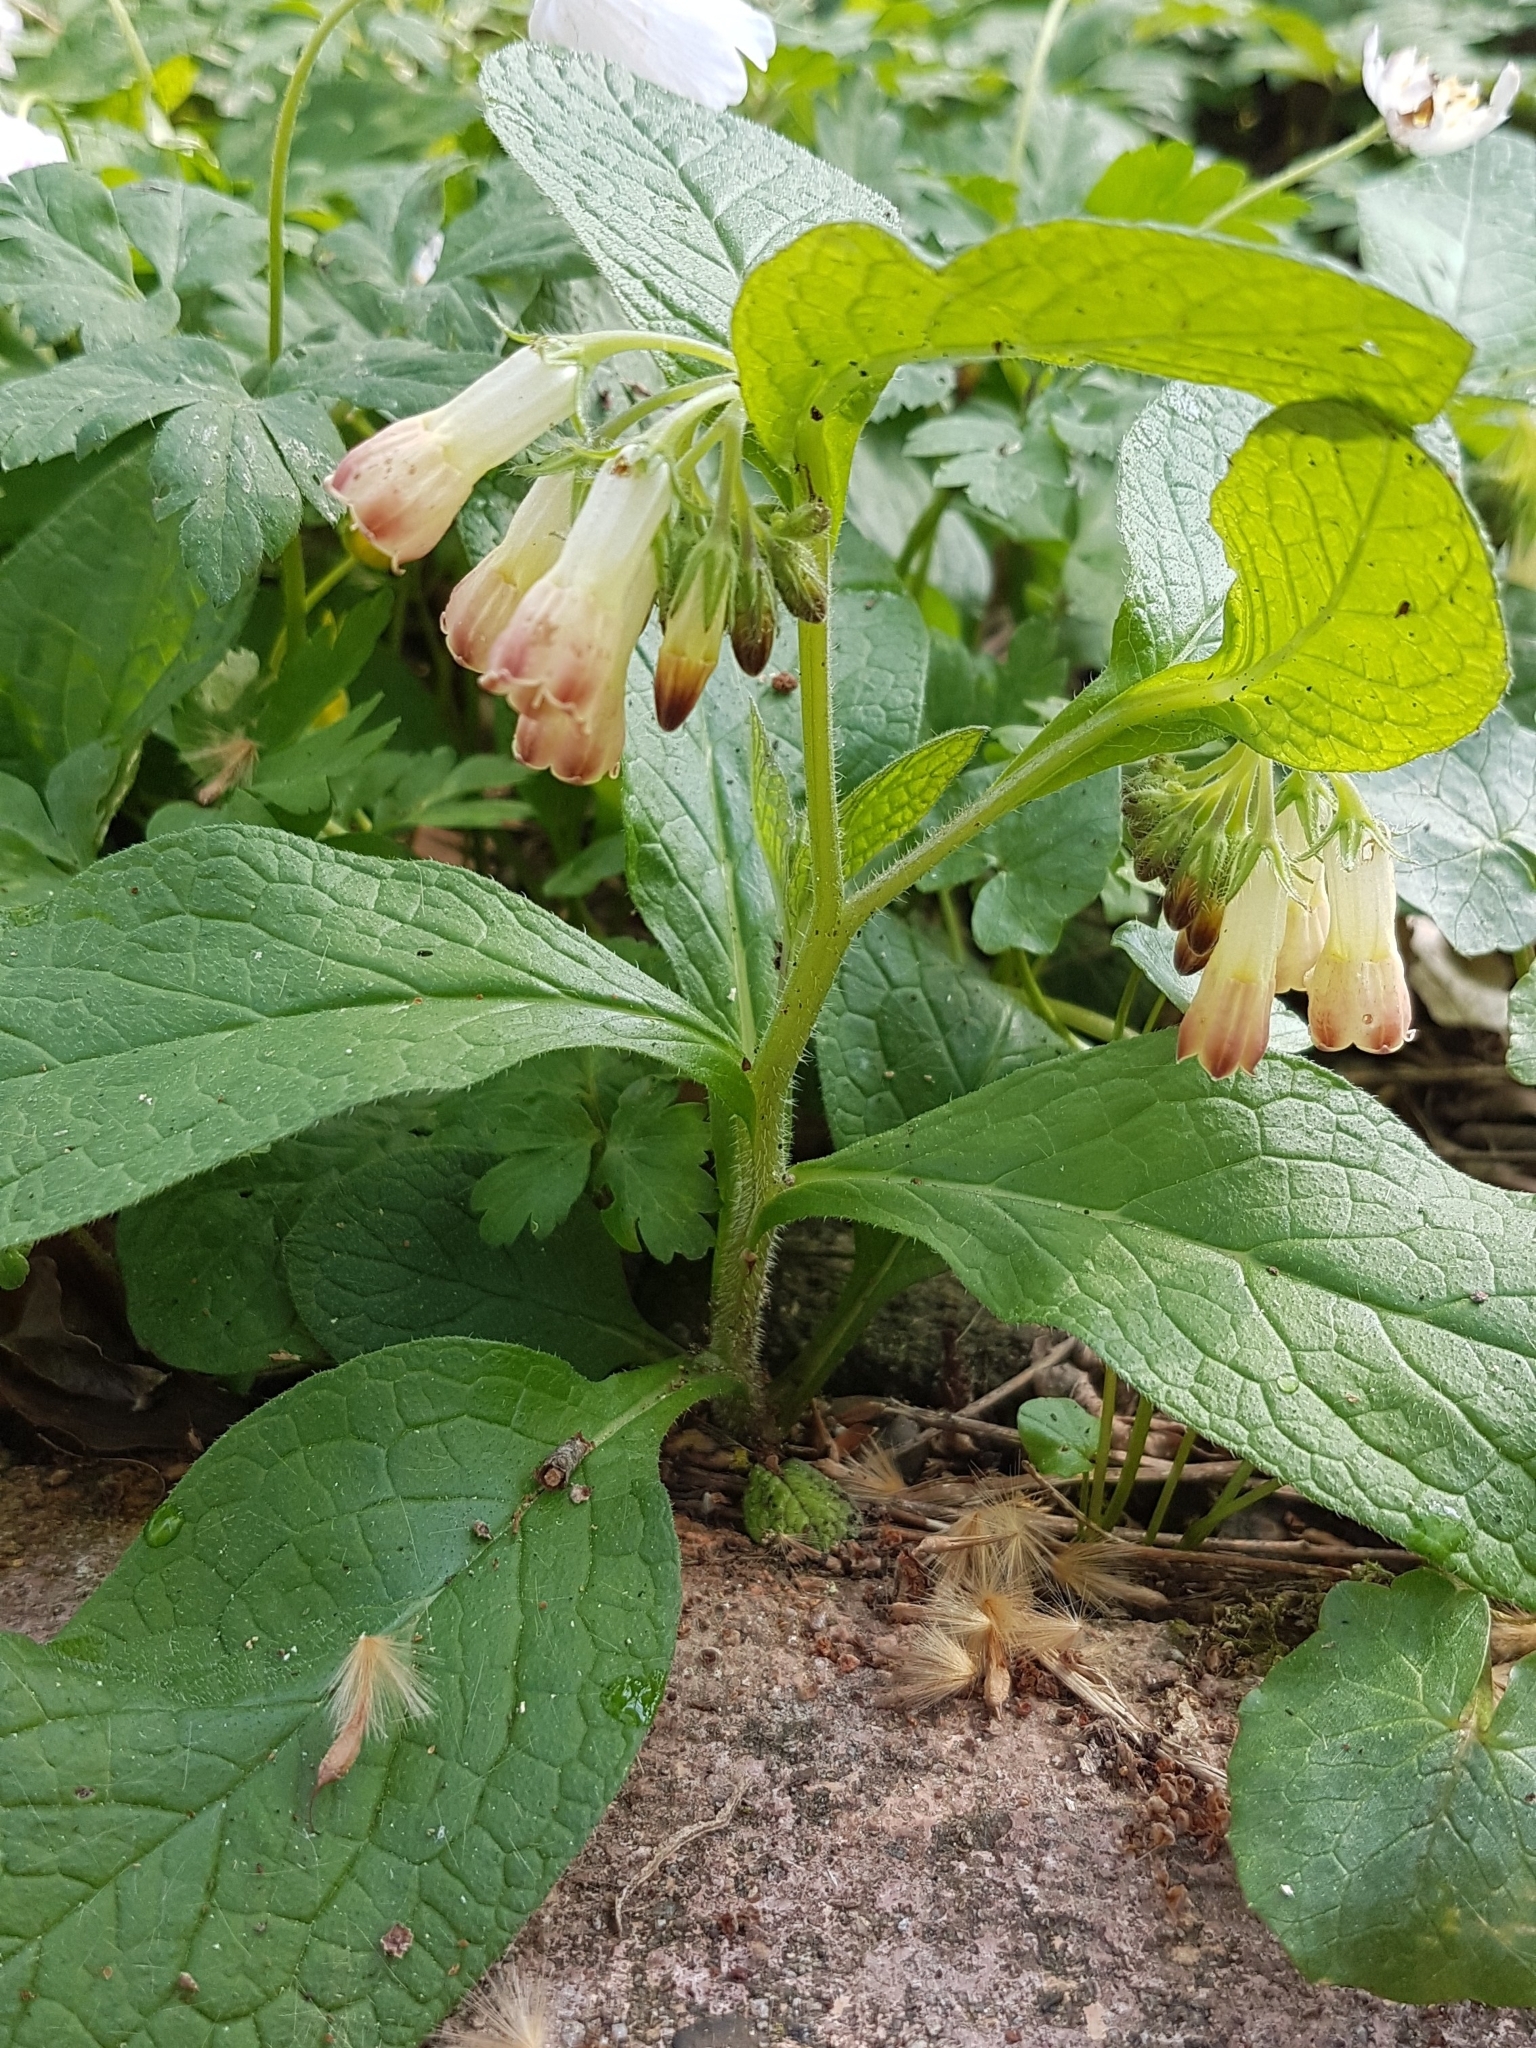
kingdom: Plantae
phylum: Tracheophyta
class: Magnoliopsida
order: Boraginales
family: Boraginaceae
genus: Symphytum
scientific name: Symphytum tuberosum
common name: Tuberous comfrey
